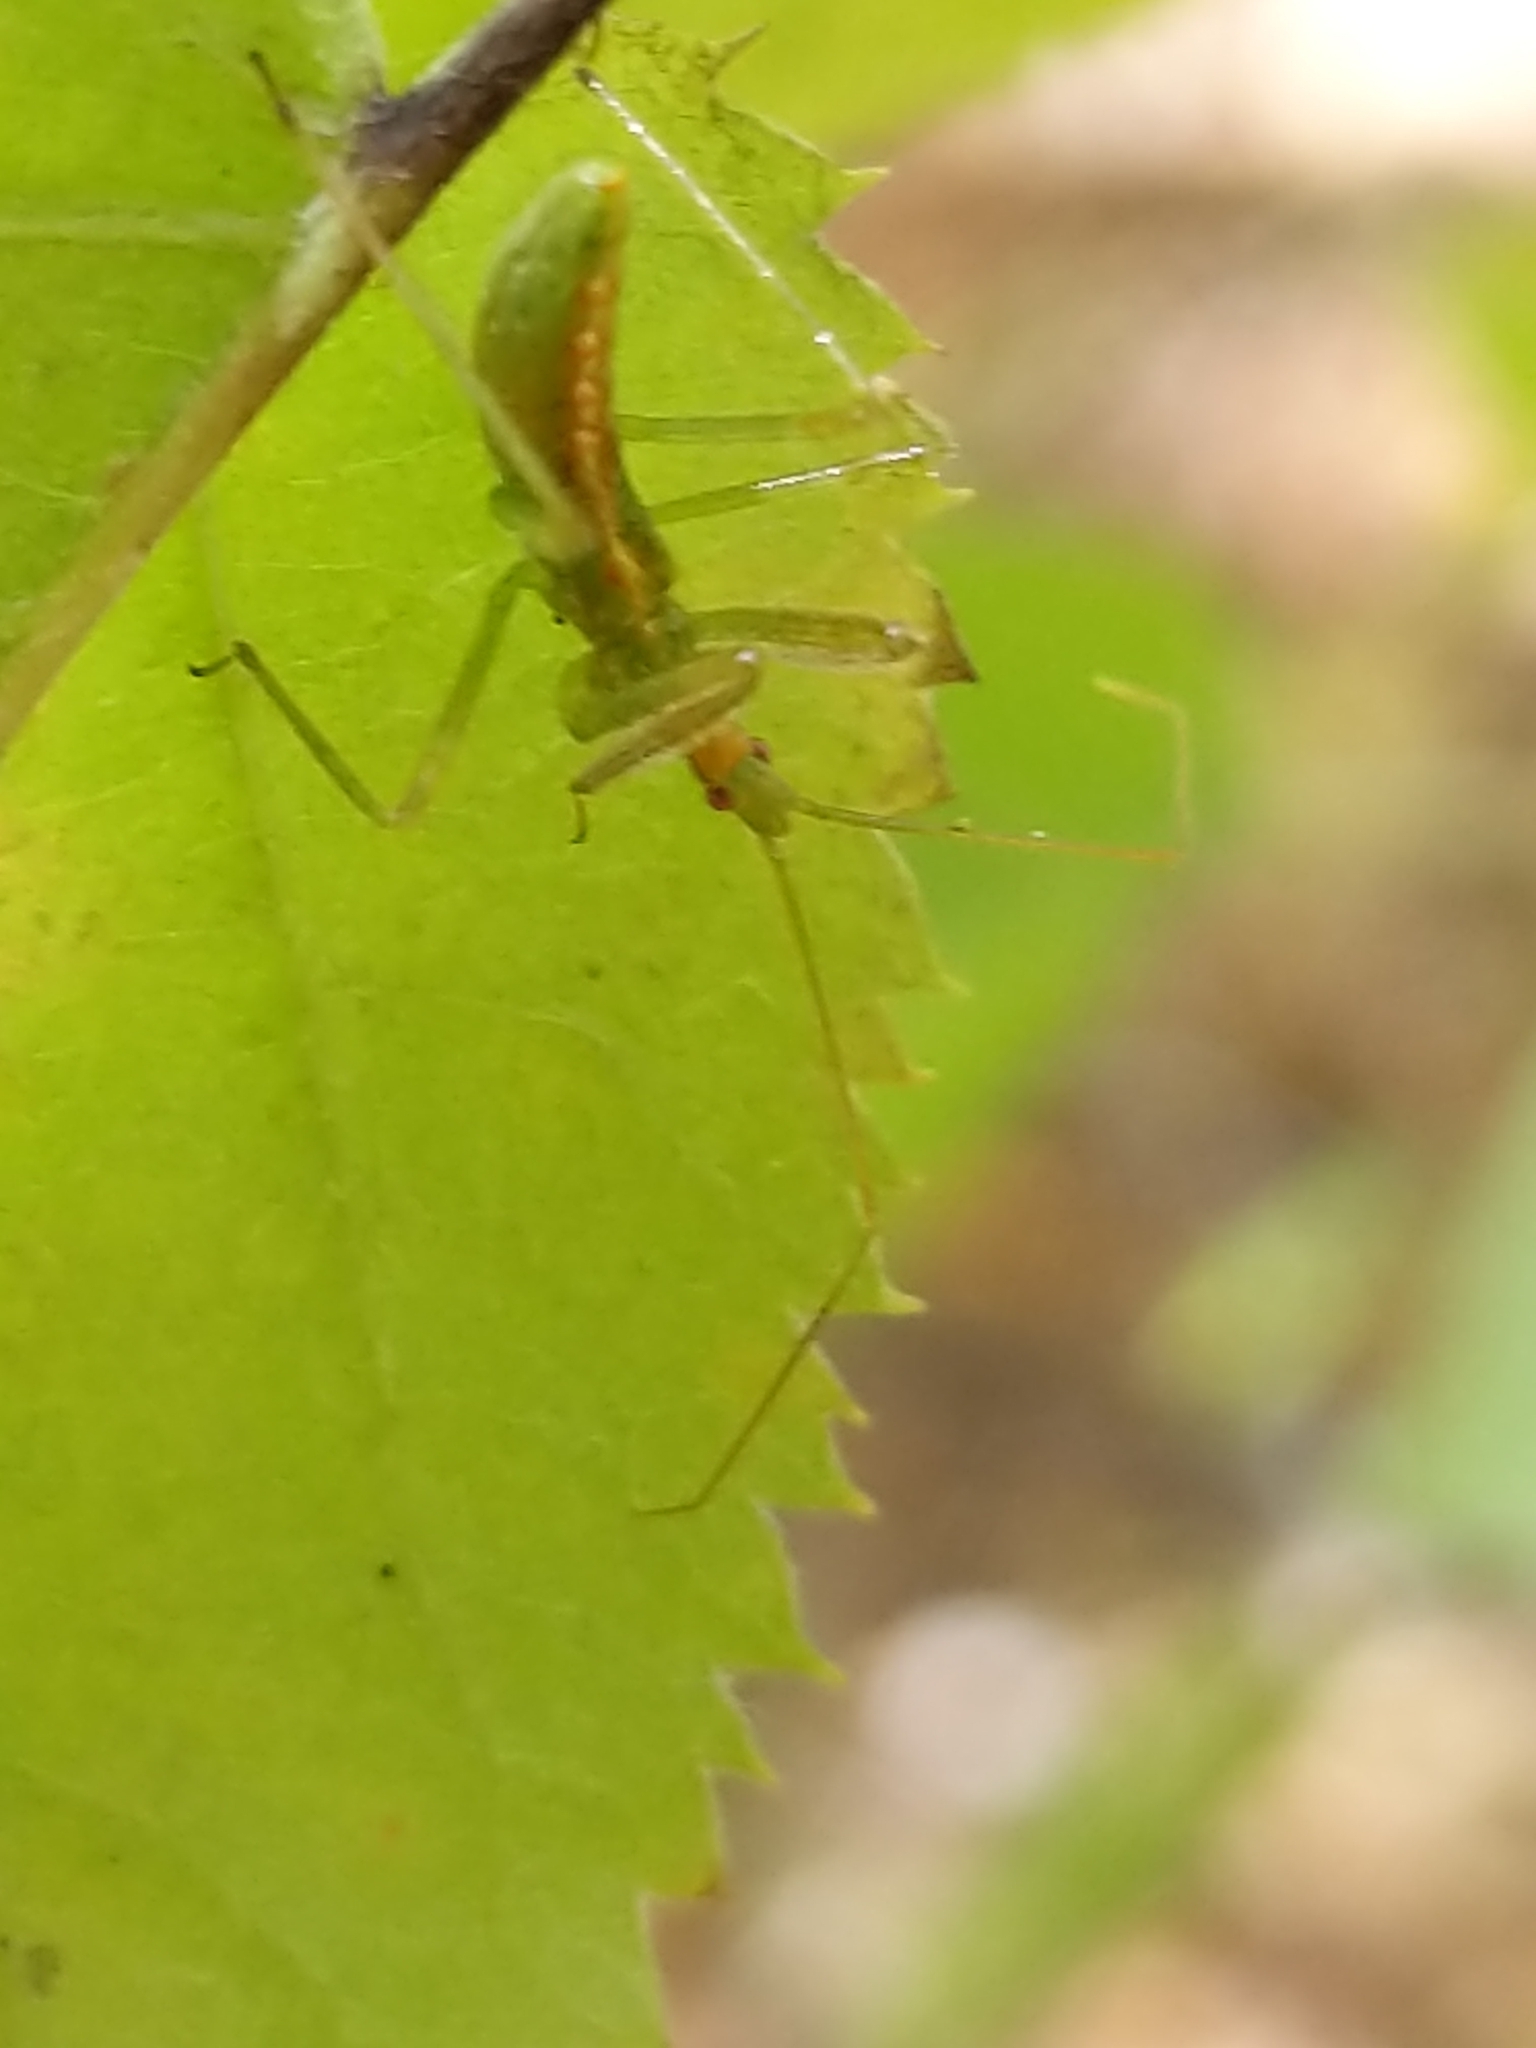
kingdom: Animalia
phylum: Arthropoda
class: Insecta
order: Hemiptera
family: Reduviidae
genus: Zelus
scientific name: Zelus luridus
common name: Pale green assassin bug
